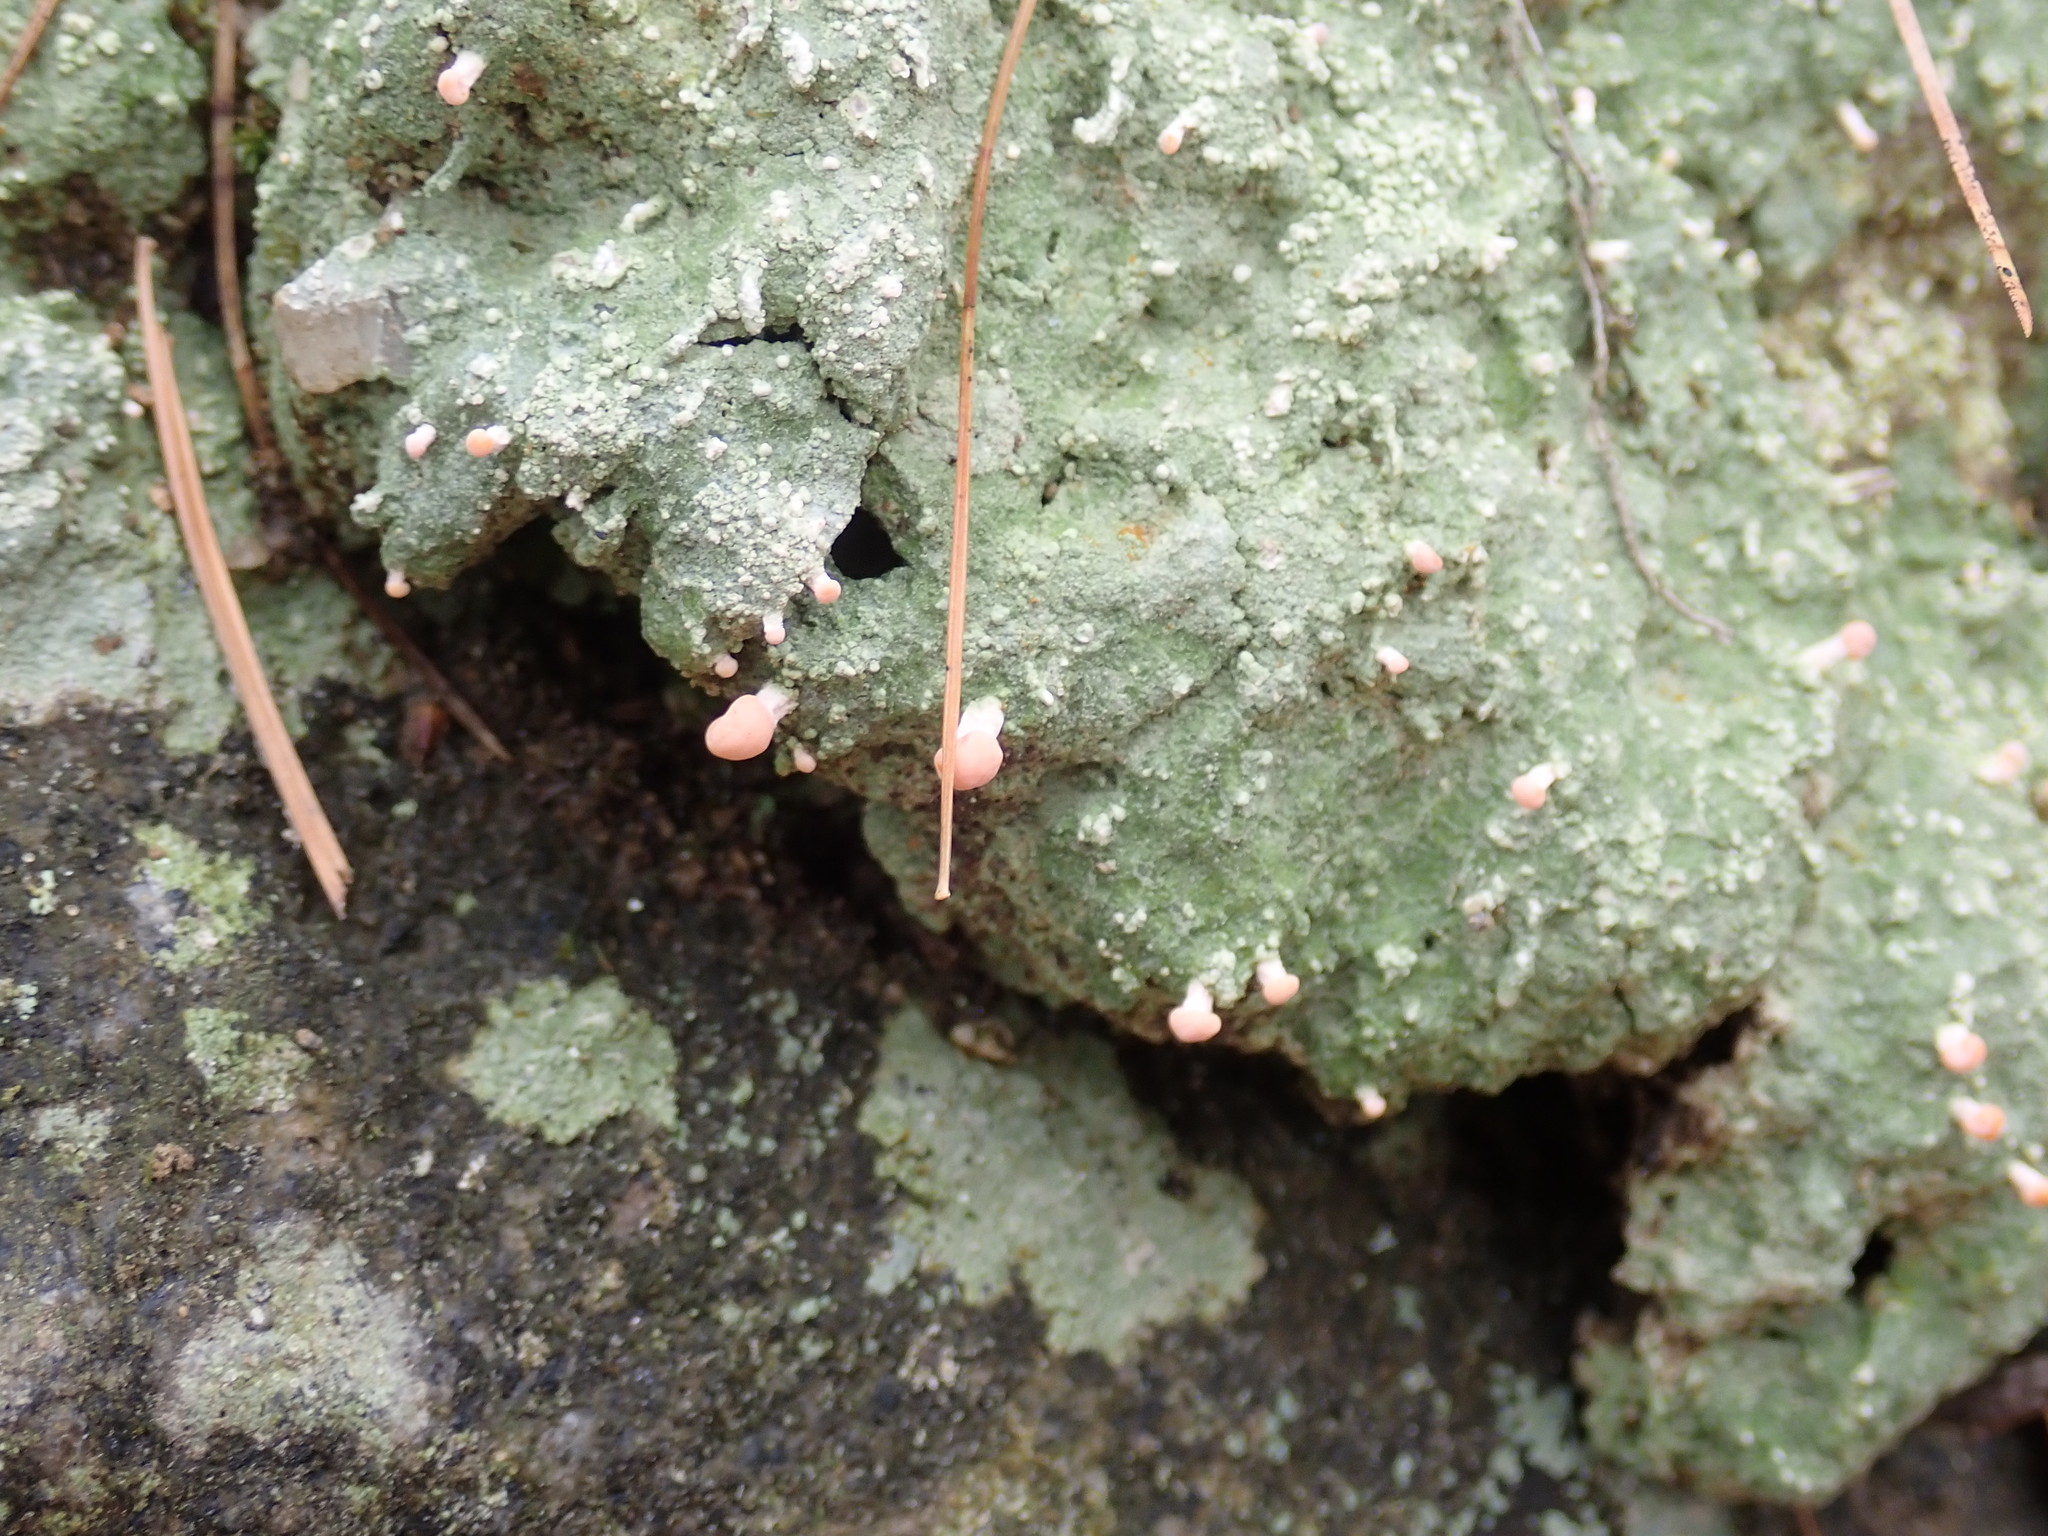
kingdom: Fungi
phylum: Ascomycota
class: Lecanoromycetes
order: Pertusariales
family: Icmadophilaceae
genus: Dibaeis
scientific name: Dibaeis baeomyces
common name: Pink earth lichen
